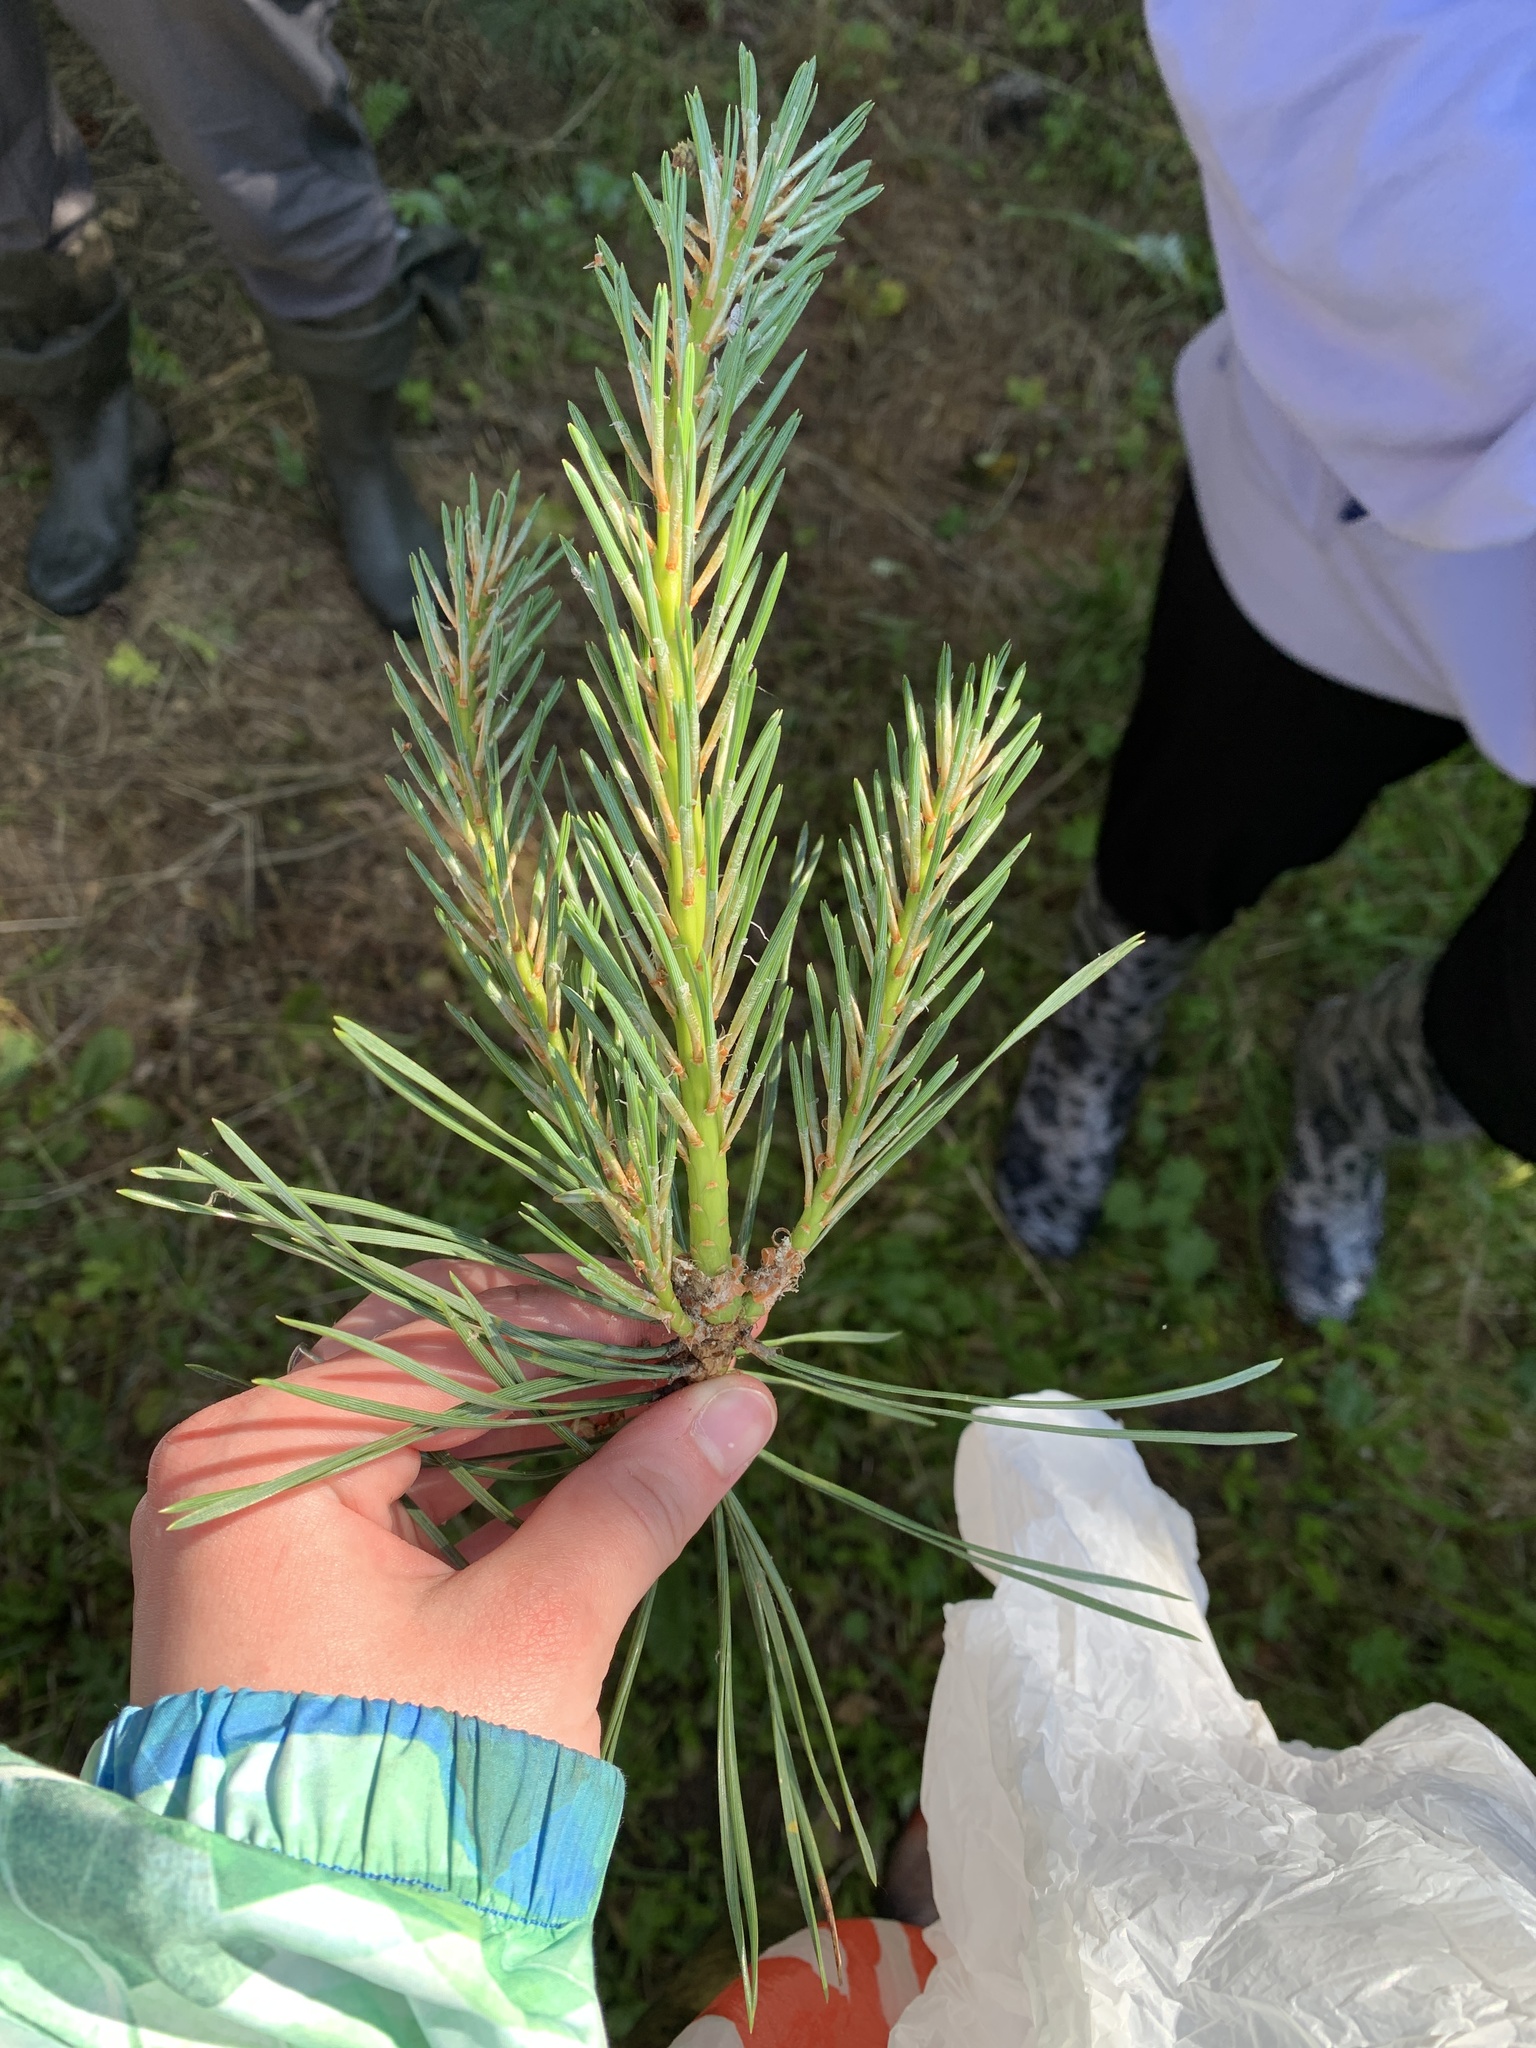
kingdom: Plantae
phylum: Tracheophyta
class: Pinopsida
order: Pinales
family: Pinaceae
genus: Pinus
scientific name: Pinus sylvestris
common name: Scots pine
